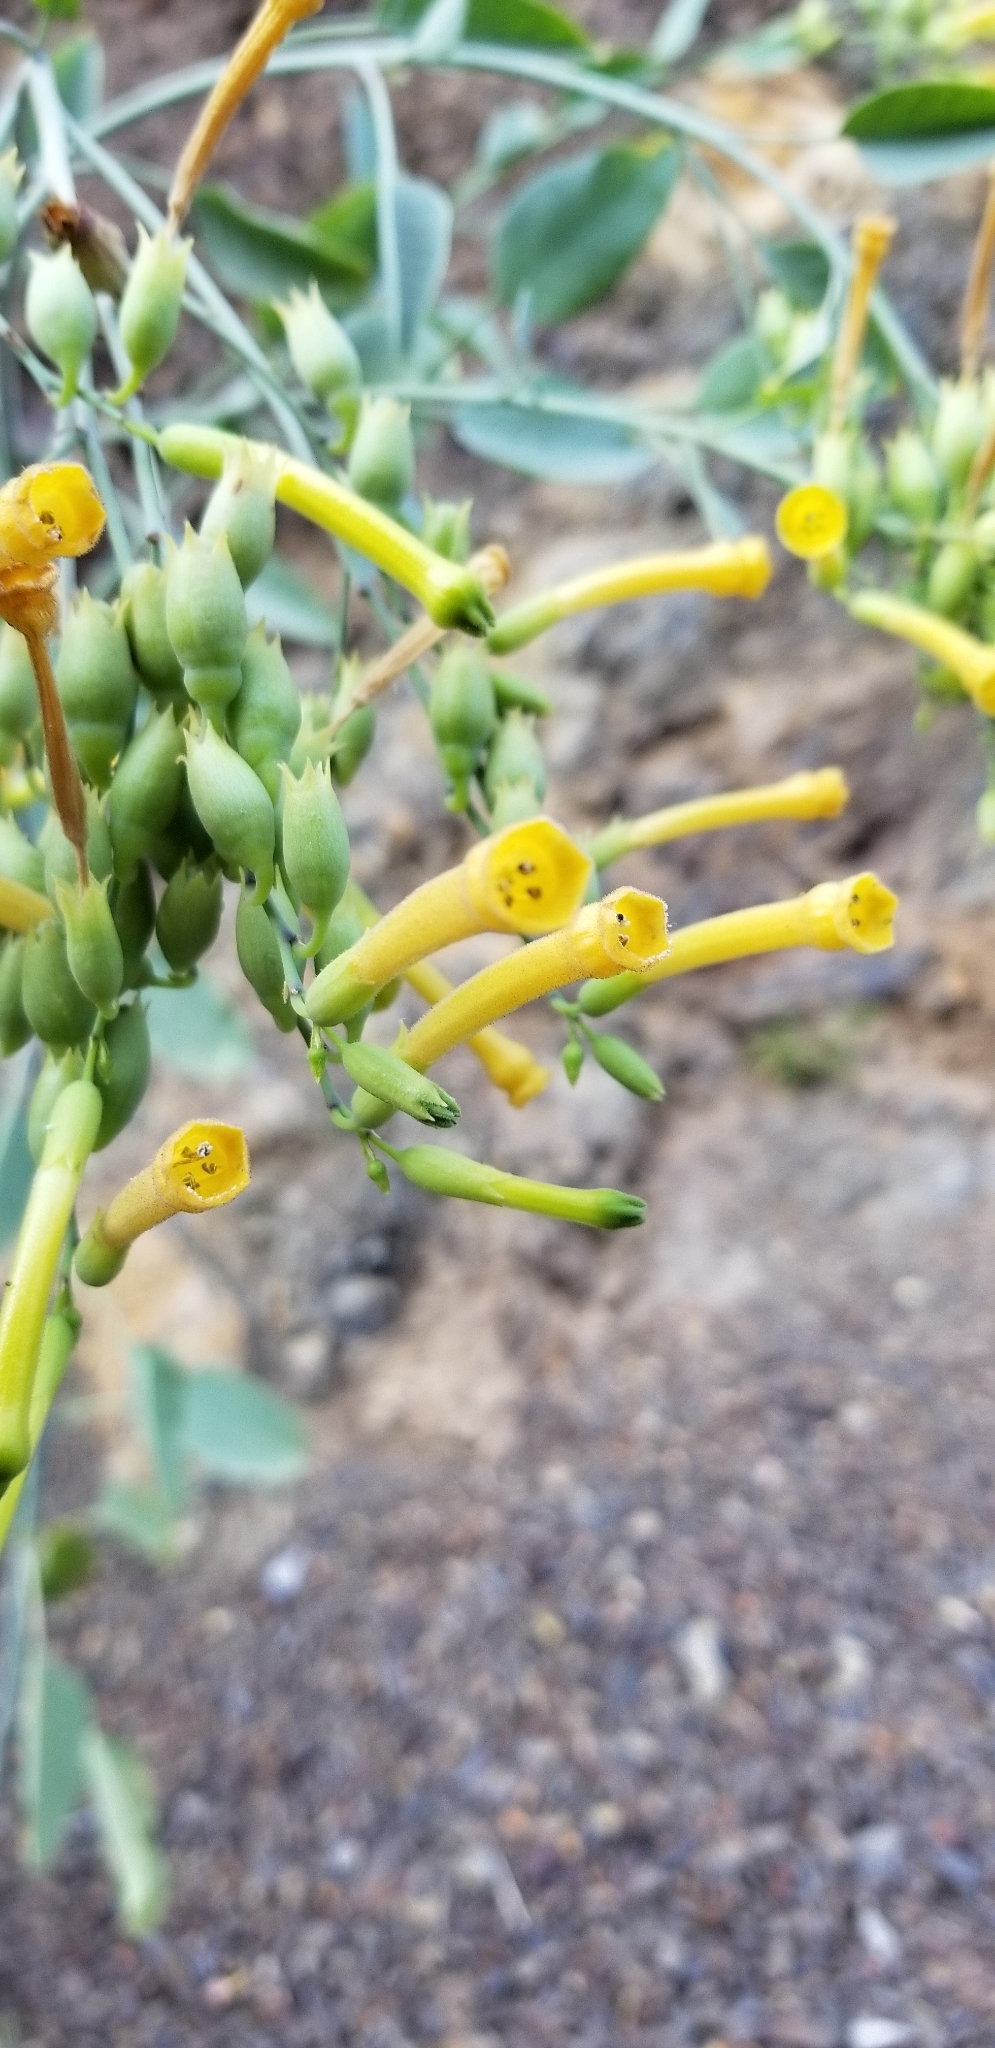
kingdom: Plantae
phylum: Tracheophyta
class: Magnoliopsida
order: Solanales
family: Solanaceae
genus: Nicotiana
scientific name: Nicotiana glauca
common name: Tree tobacco
